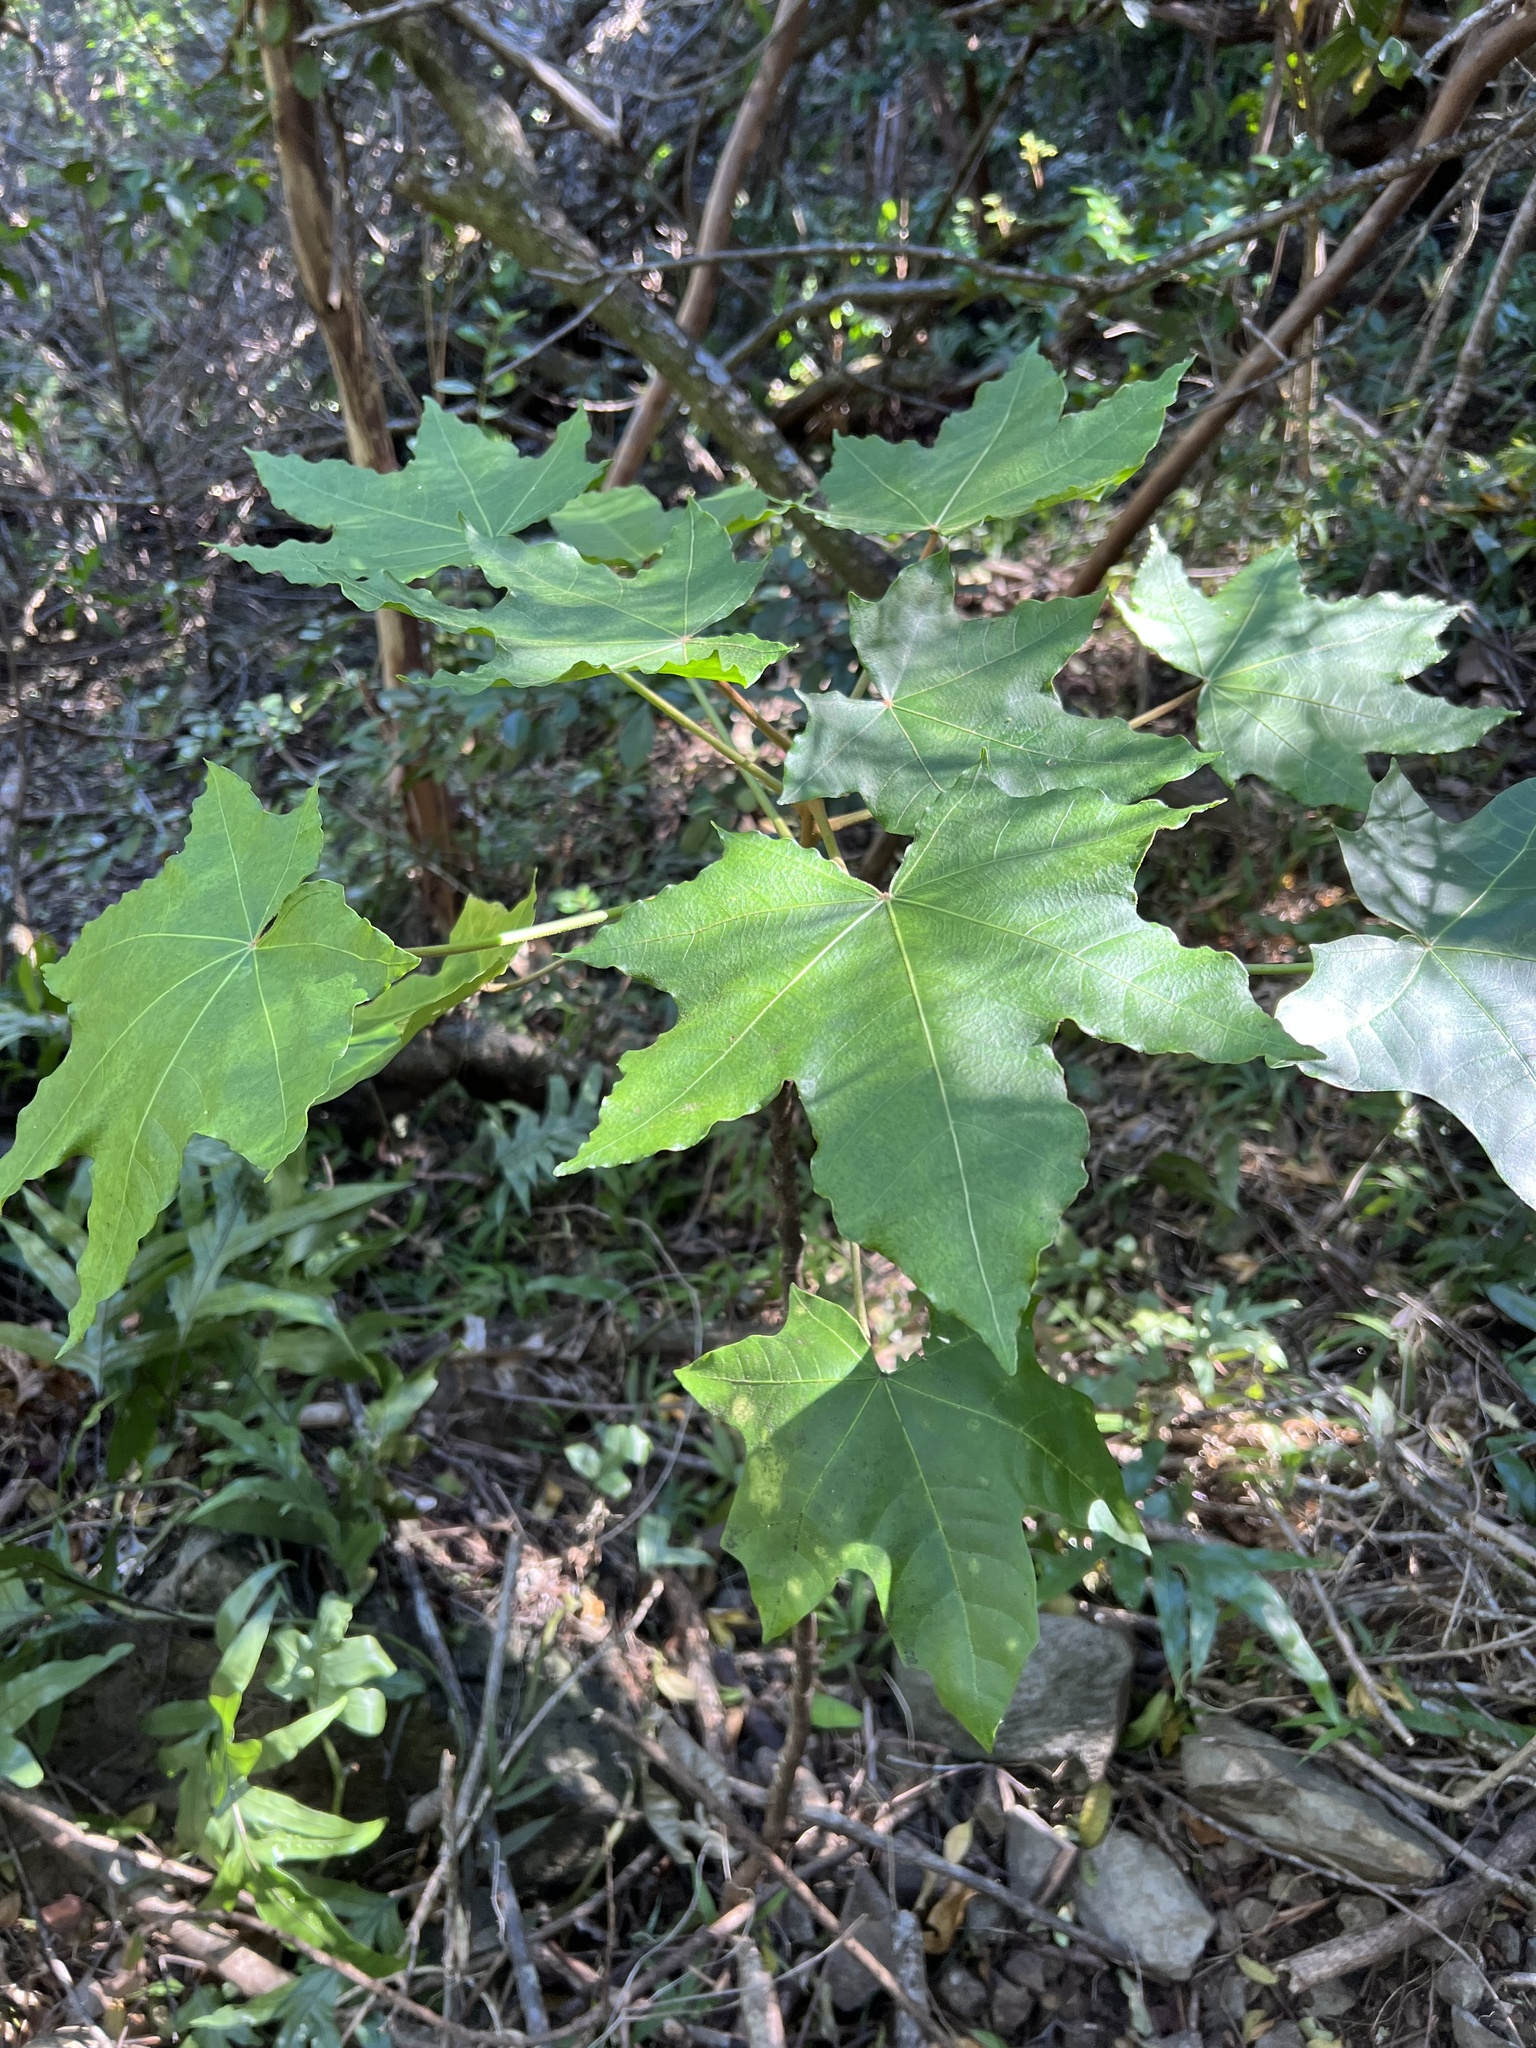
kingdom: Plantae
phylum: Tracheophyta
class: Magnoliopsida
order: Malpighiales
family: Euphorbiaceae
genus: Aleurites
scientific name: Aleurites moluccanus
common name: Candlenut tree
